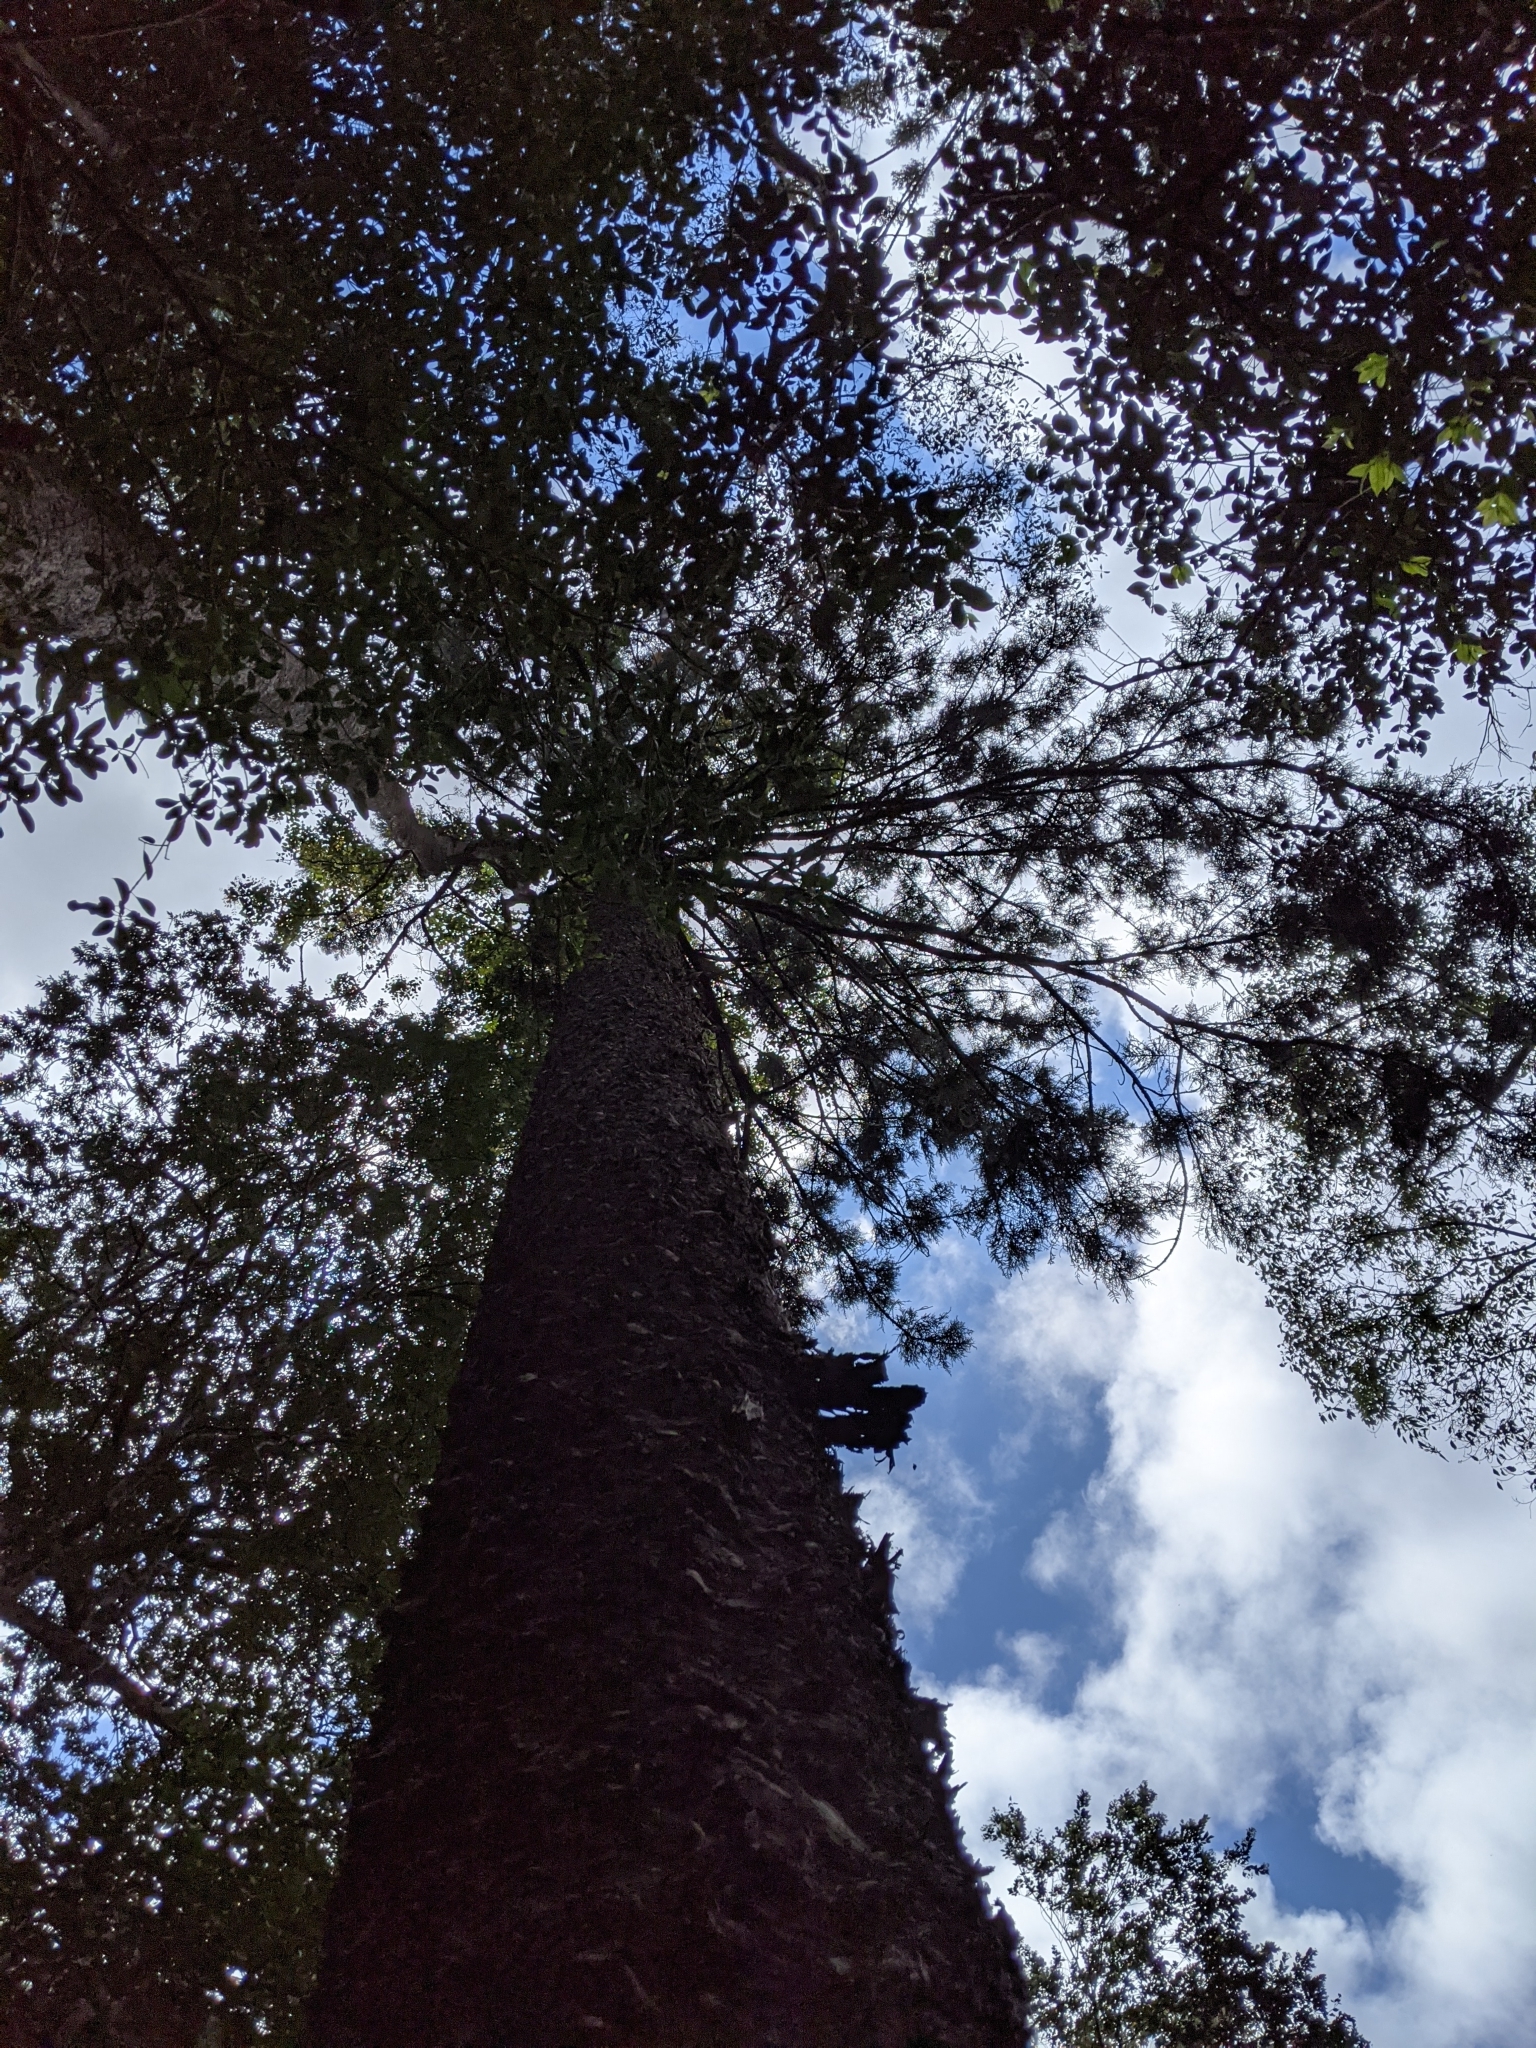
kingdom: Plantae
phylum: Tracheophyta
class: Pinopsida
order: Pinales
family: Araucariaceae
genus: Araucaria
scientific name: Araucaria cunninghamii
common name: Colonial pine
